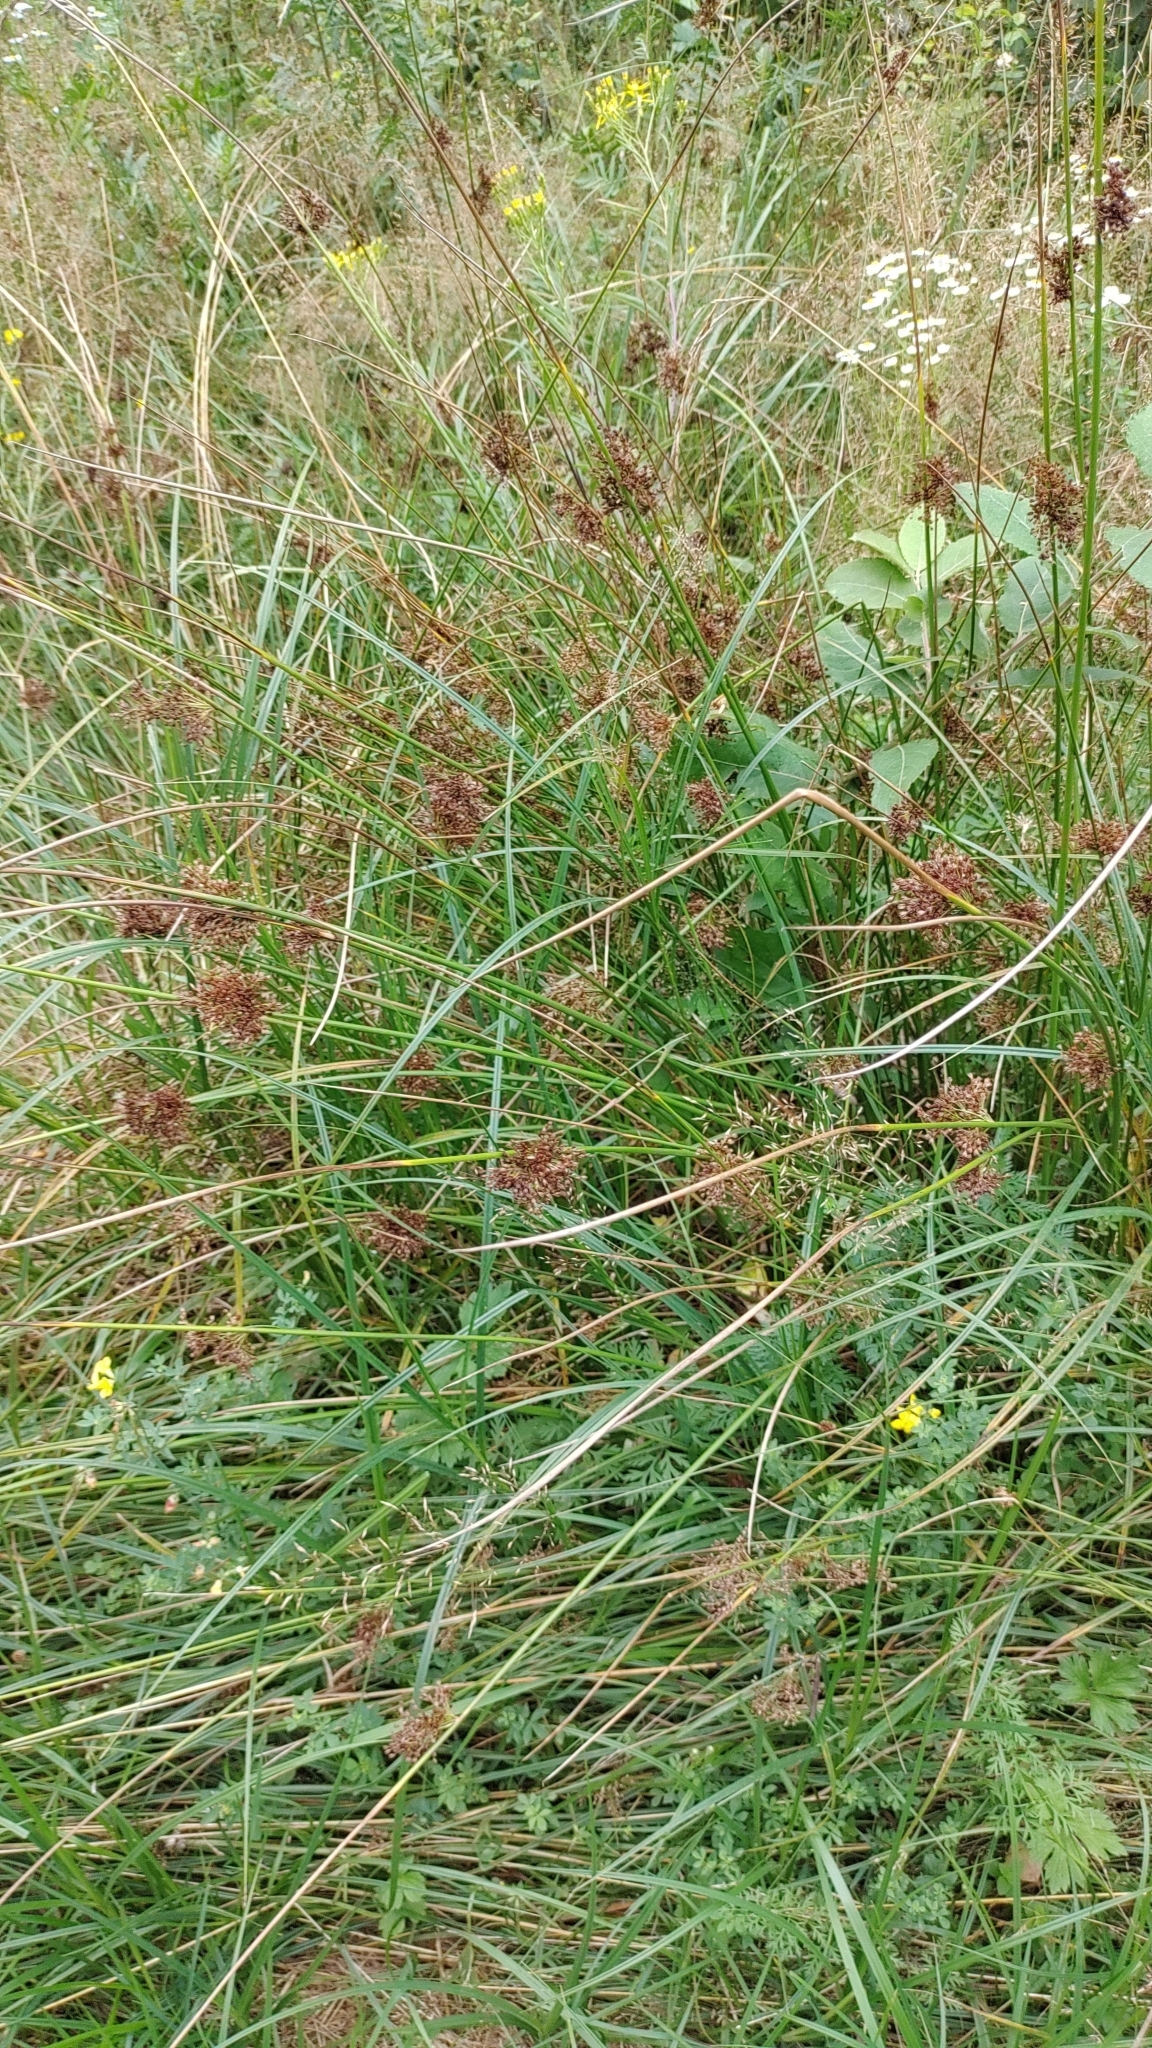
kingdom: Plantae
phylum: Tracheophyta
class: Liliopsida
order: Poales
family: Juncaceae
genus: Juncus
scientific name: Juncus effusus
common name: Soft rush
